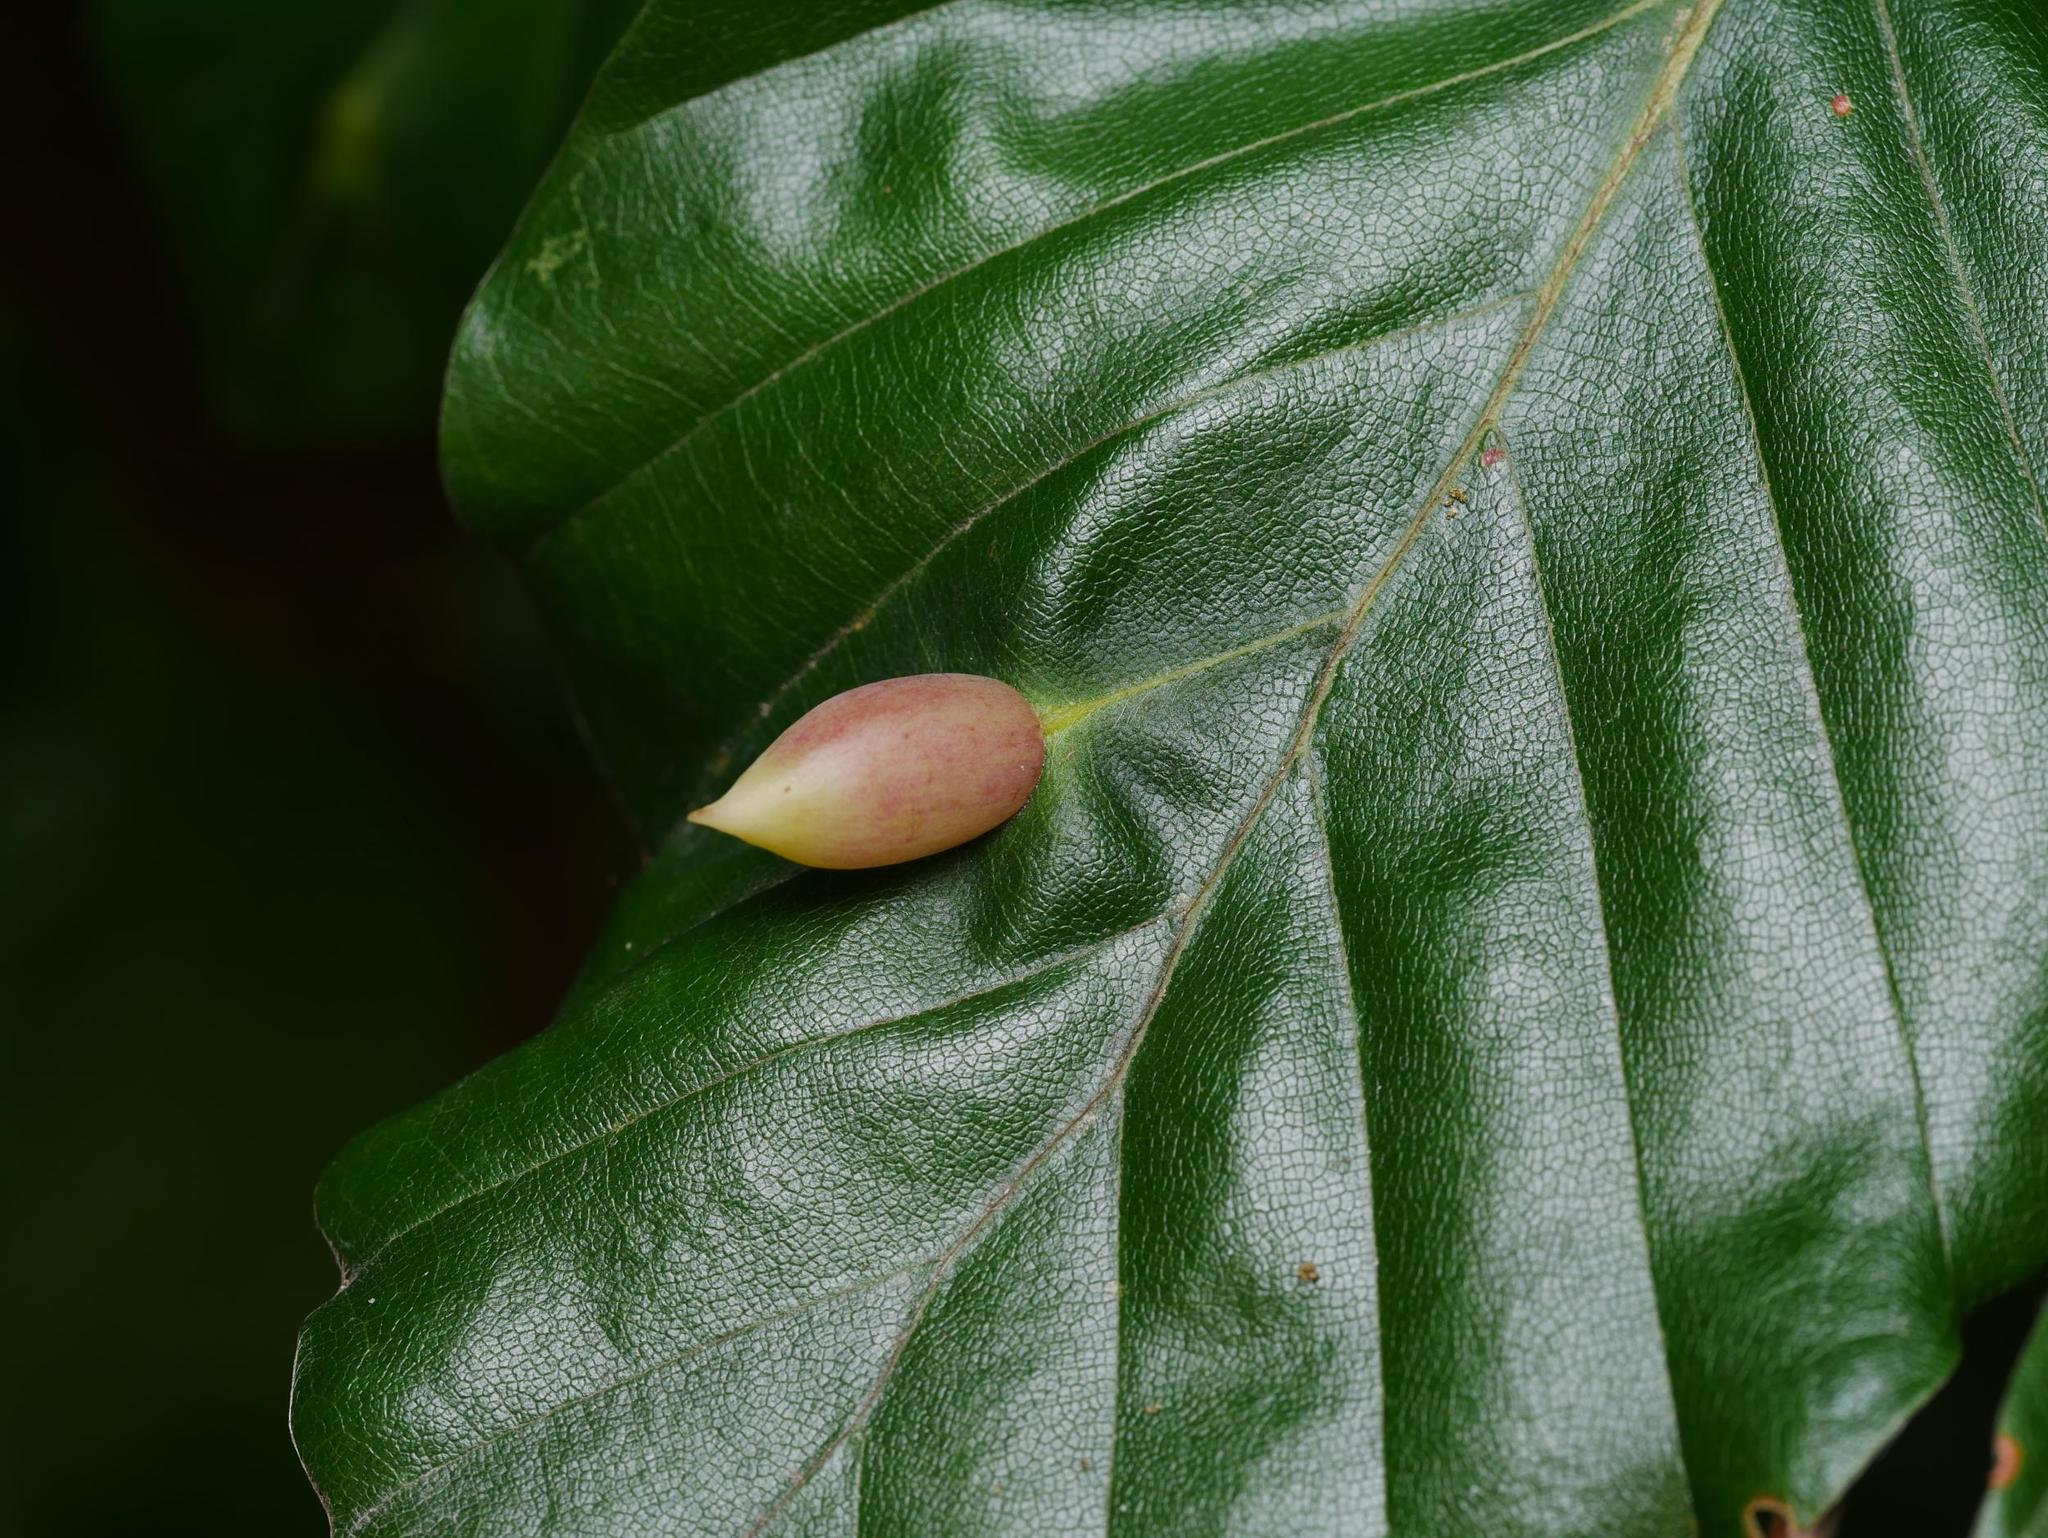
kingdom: Animalia
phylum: Arthropoda
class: Insecta
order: Diptera
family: Cecidomyiidae
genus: Mikiola
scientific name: Mikiola fagi
